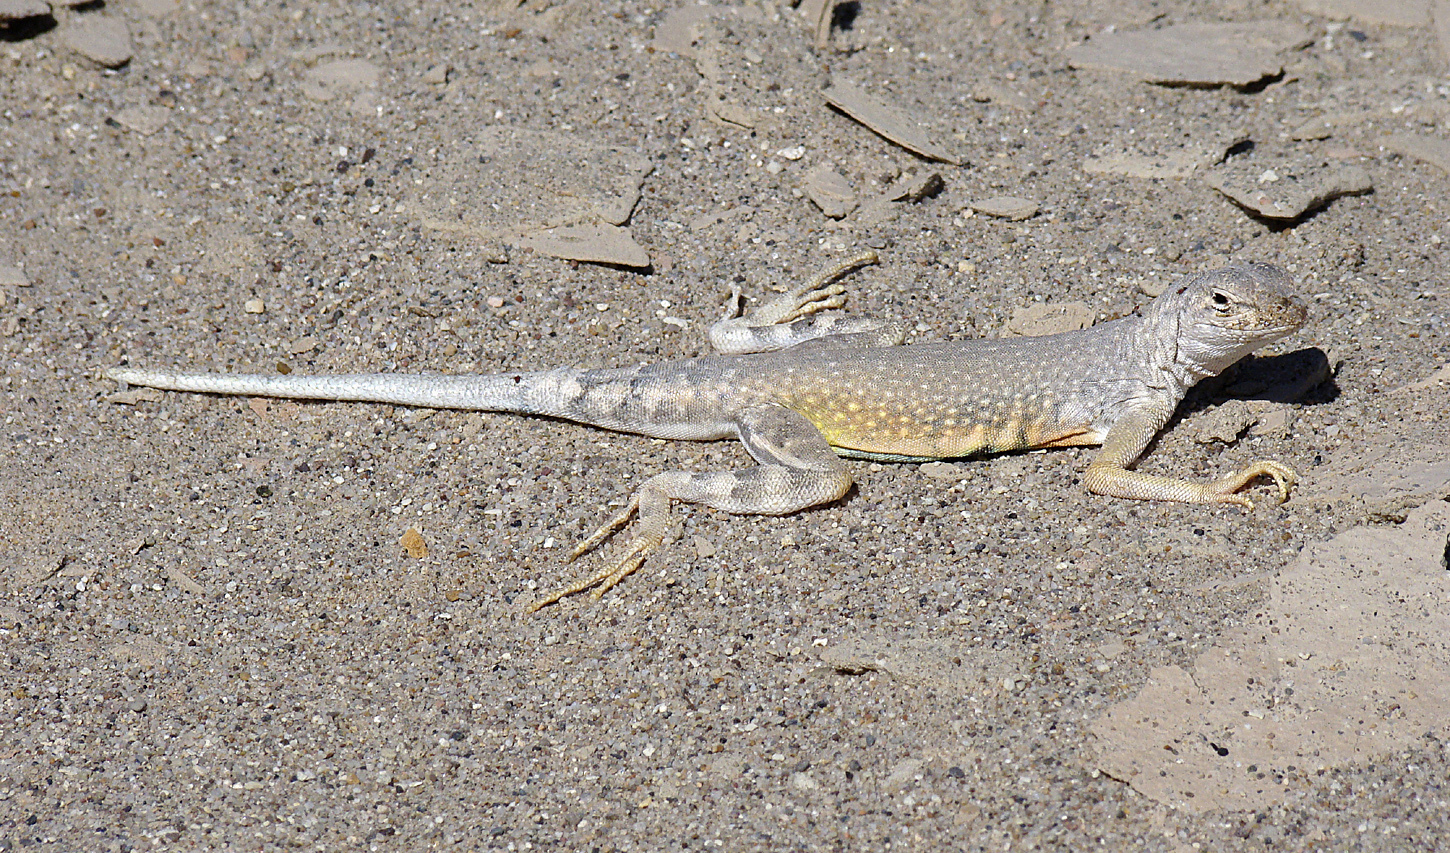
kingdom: Animalia
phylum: Chordata
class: Squamata
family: Phrynosomatidae
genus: Callisaurus
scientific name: Callisaurus draconoides
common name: Zebra-tailed lizard
